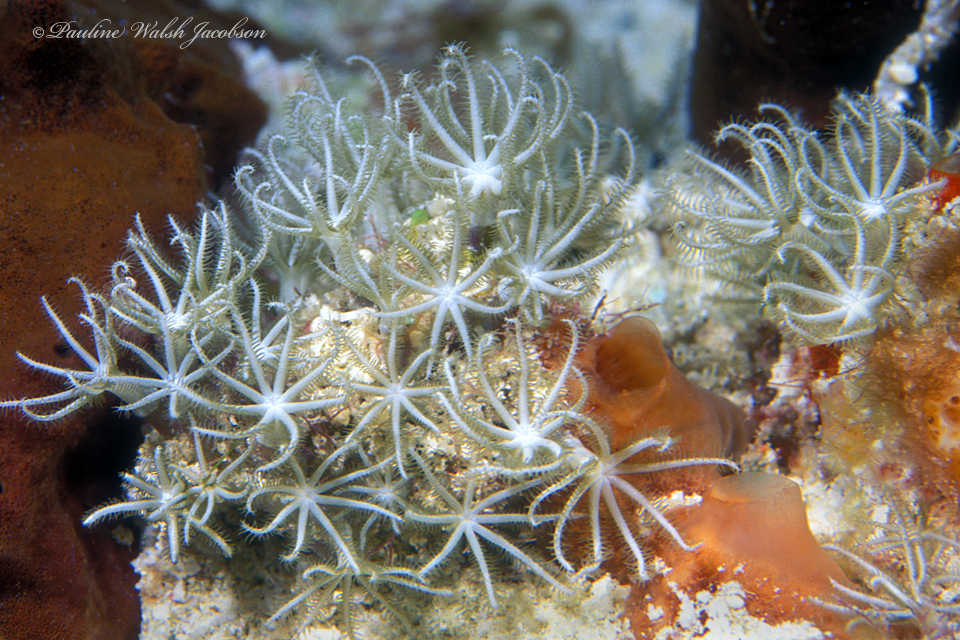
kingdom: Animalia
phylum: Cnidaria
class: Anthozoa
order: Scleralcyonacea
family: Briareidae
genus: Briareum
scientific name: Briareum asbestinum
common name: Corky sea finger
